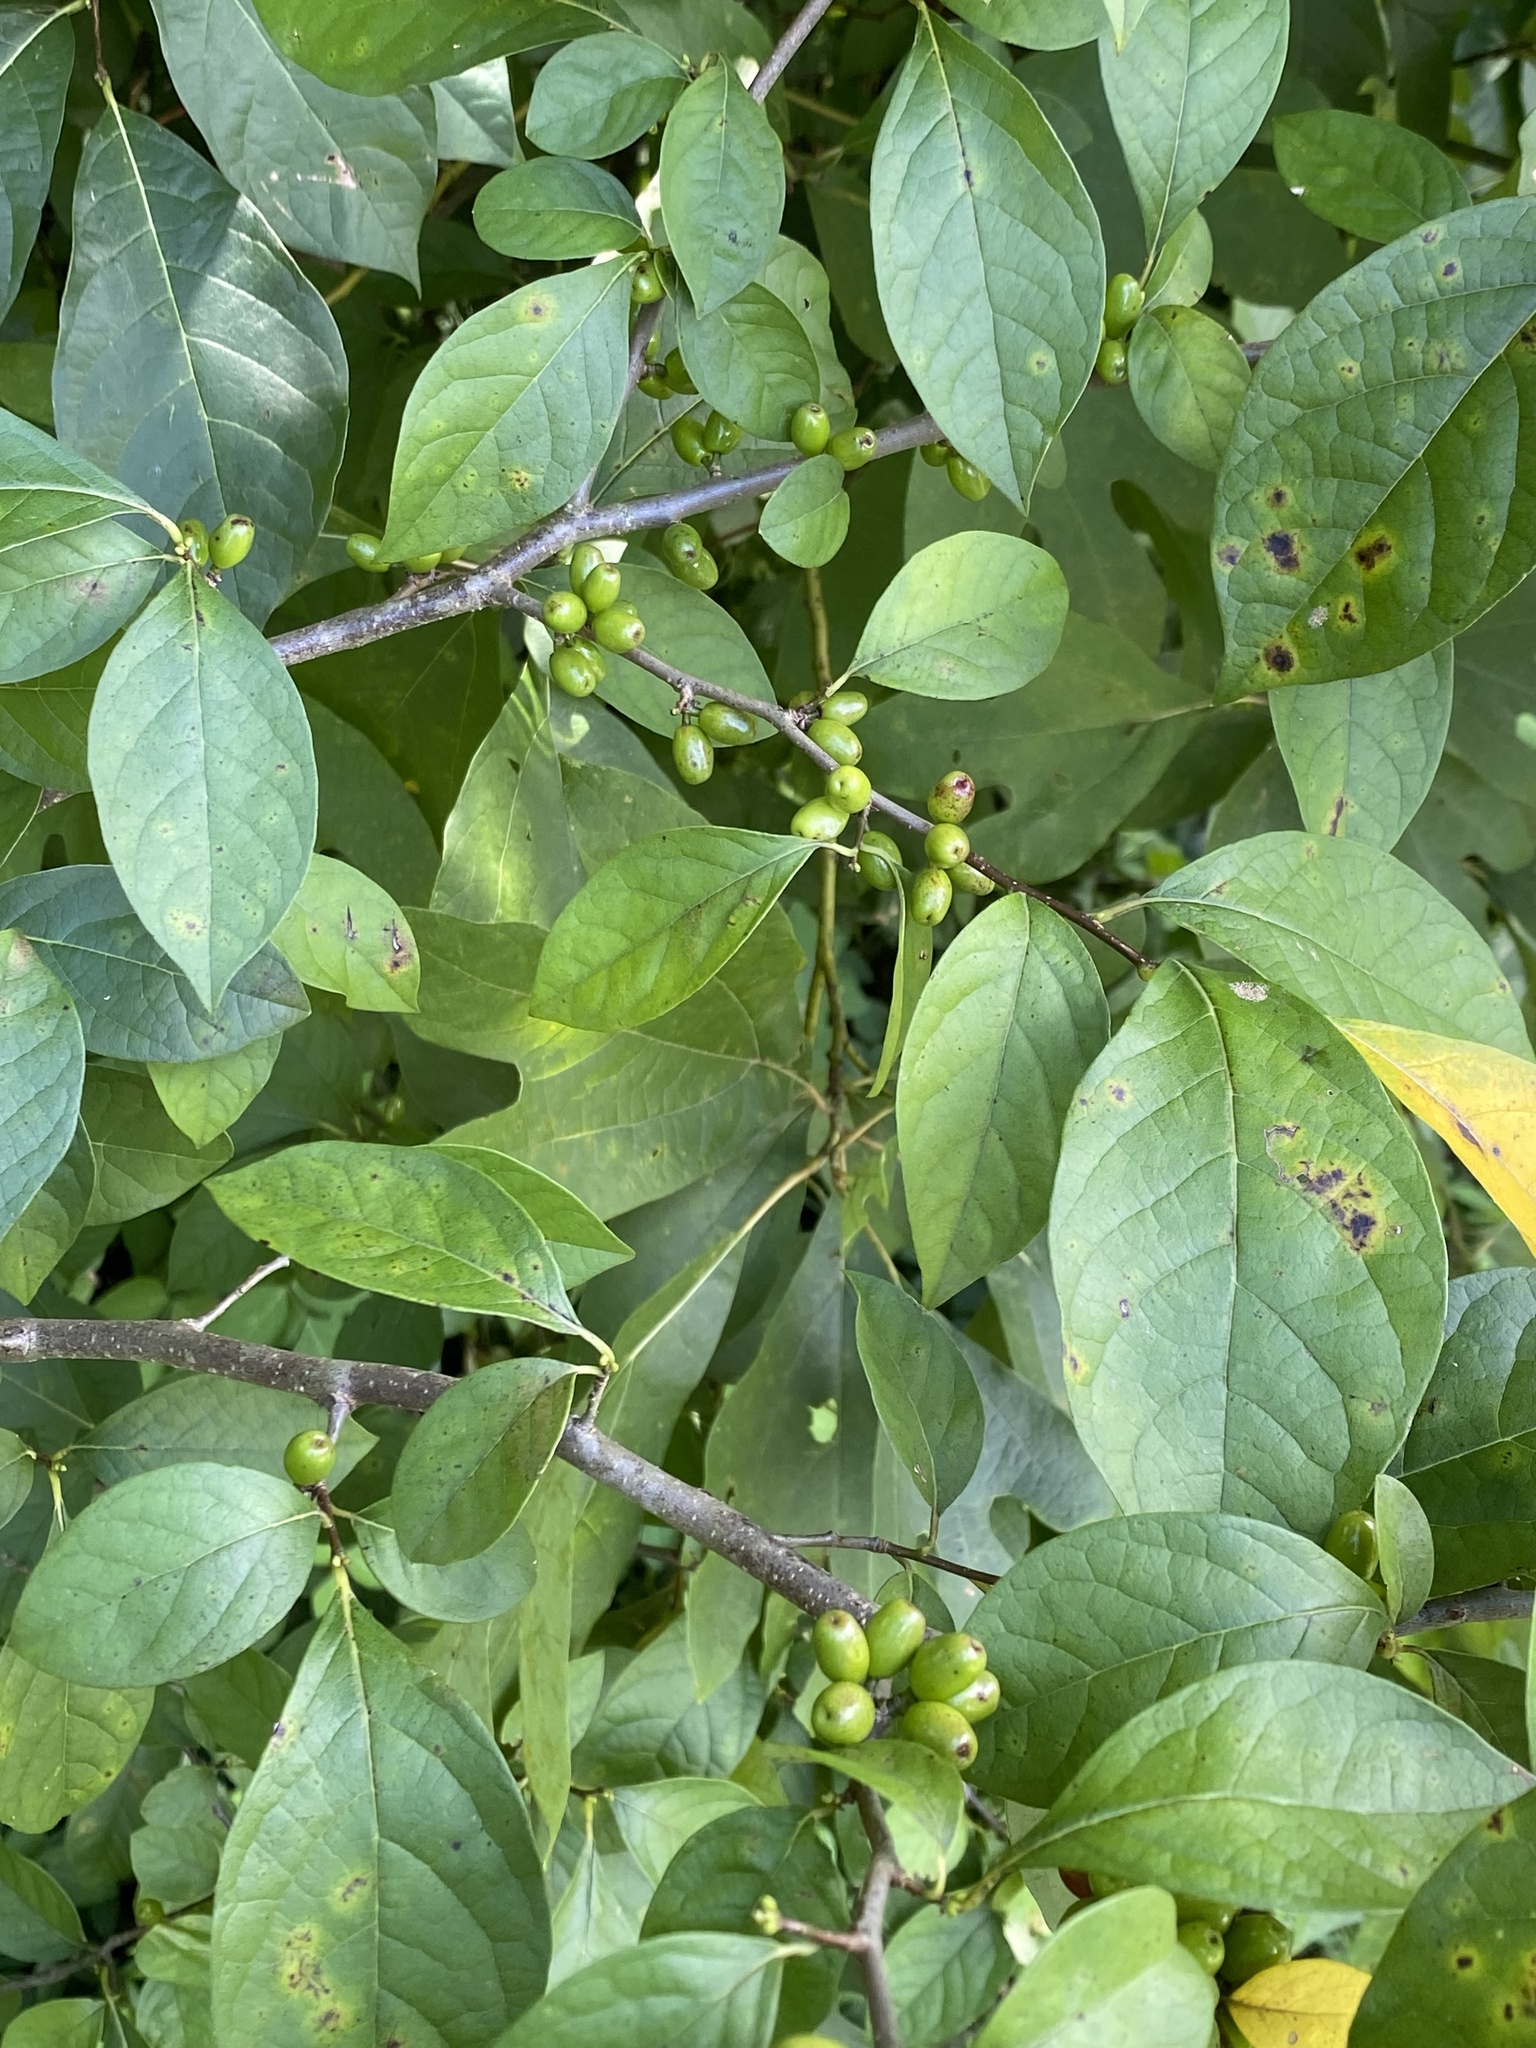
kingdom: Plantae
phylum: Tracheophyta
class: Magnoliopsida
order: Laurales
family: Lauraceae
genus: Lindera
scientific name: Lindera benzoin
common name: Spicebush
